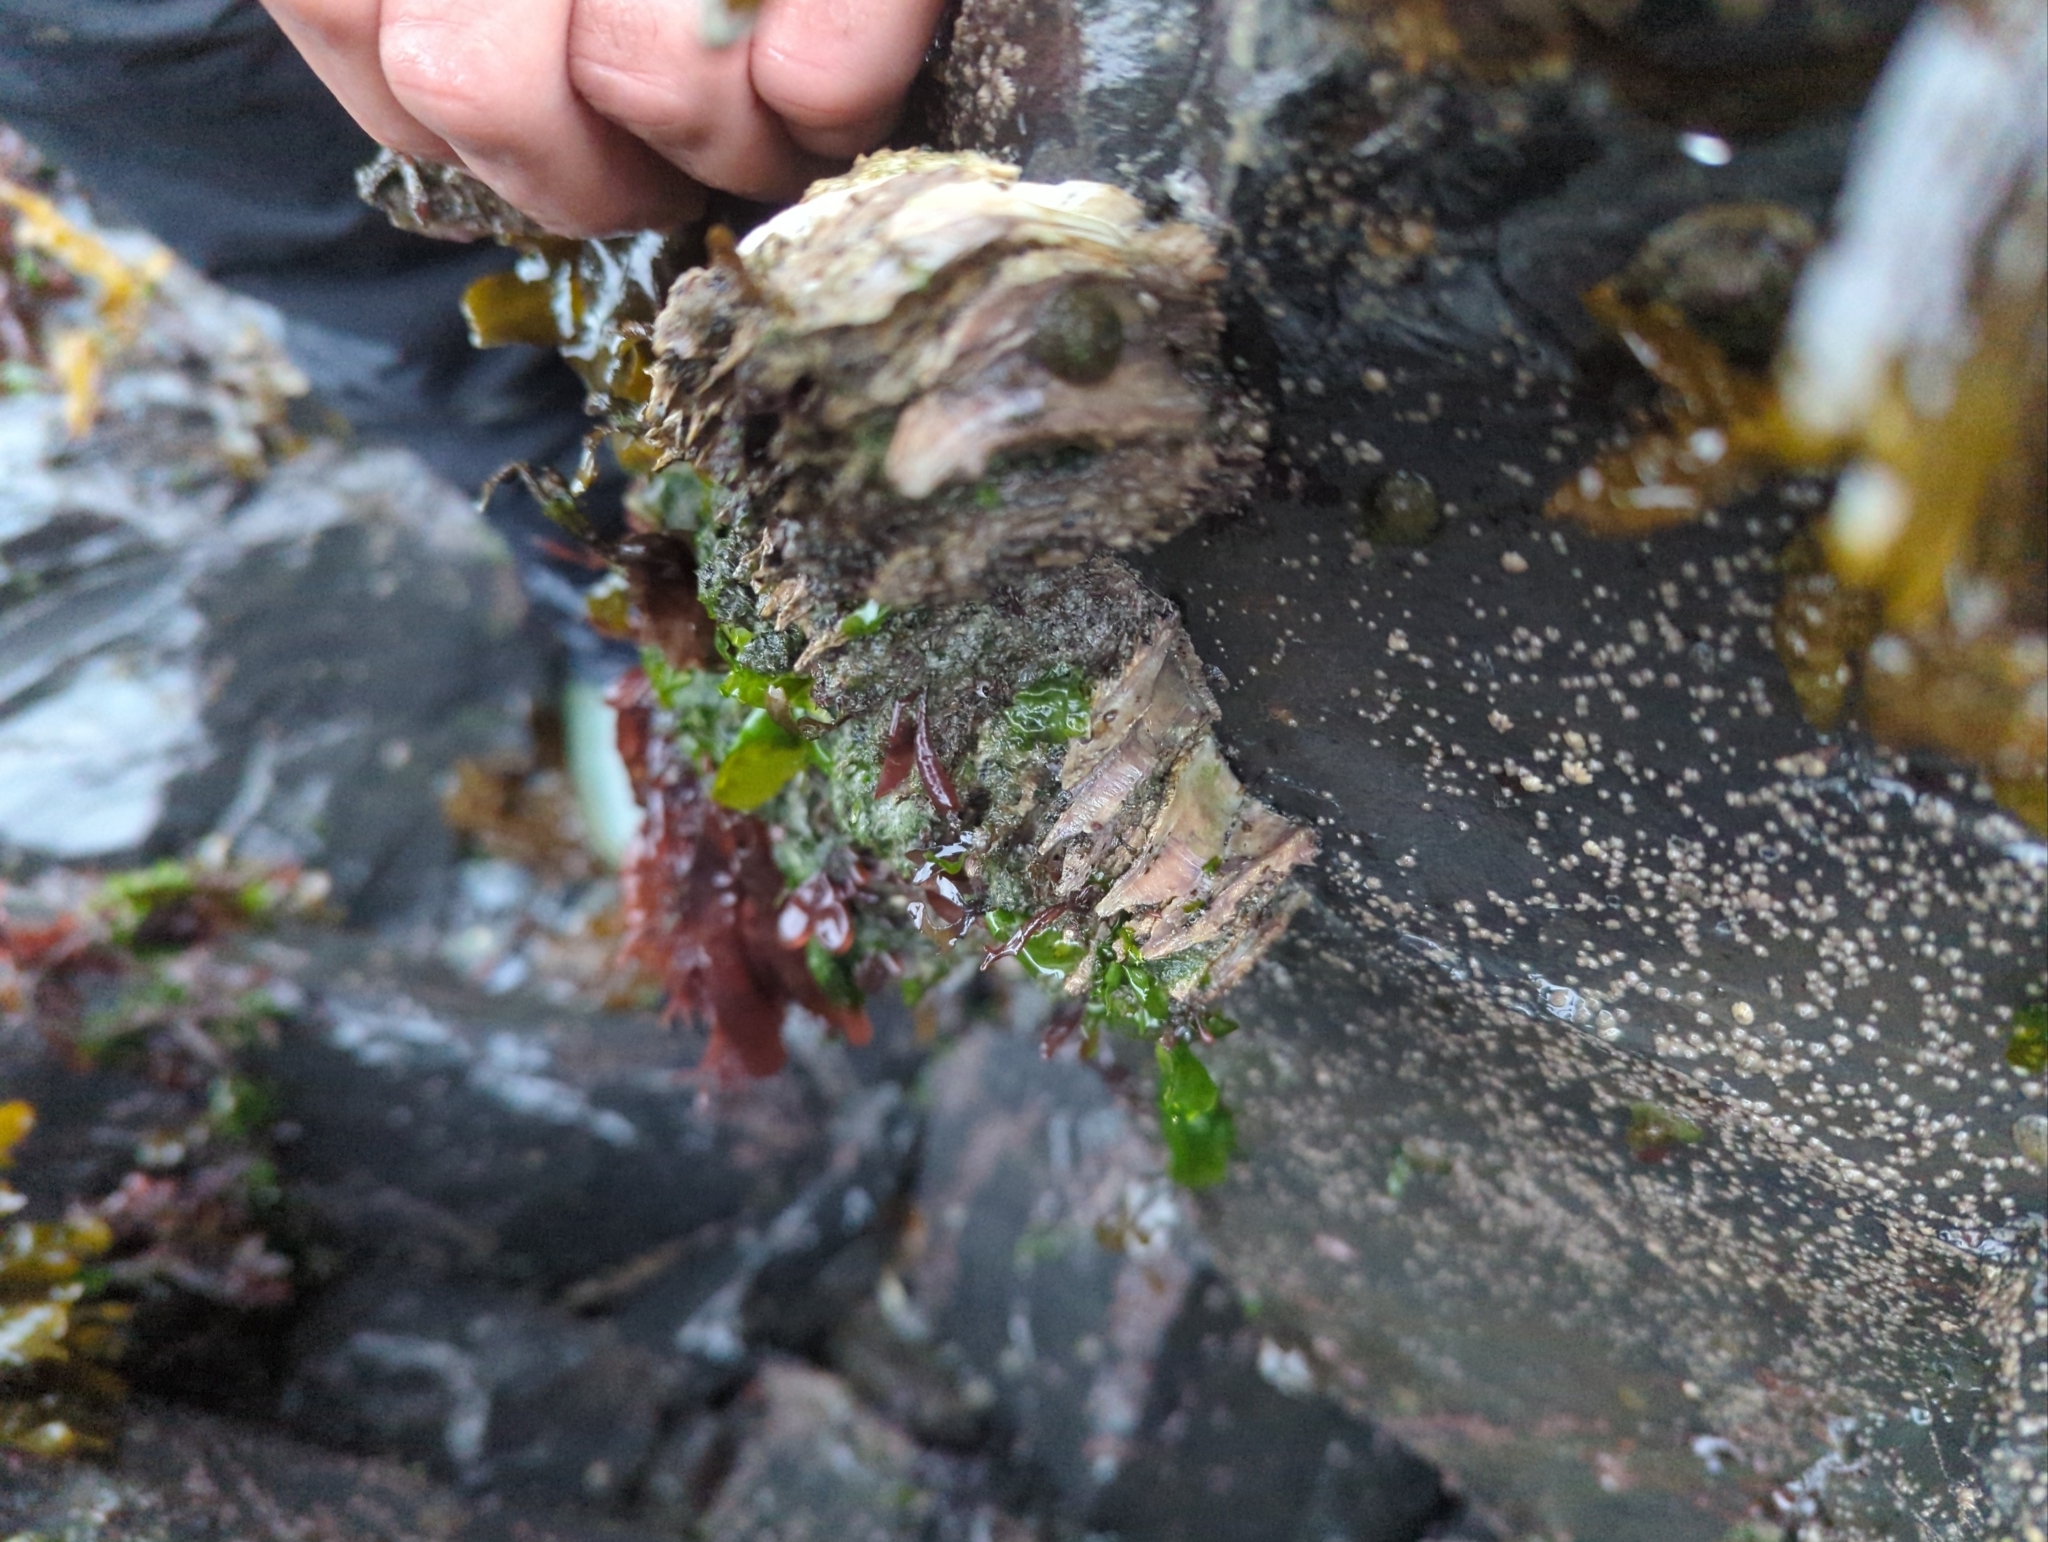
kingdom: Animalia
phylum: Arthropoda
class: Maxillopoda
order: Sessilia
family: Archaeobalanidae
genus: Semibalanus
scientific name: Semibalanus cariosus
